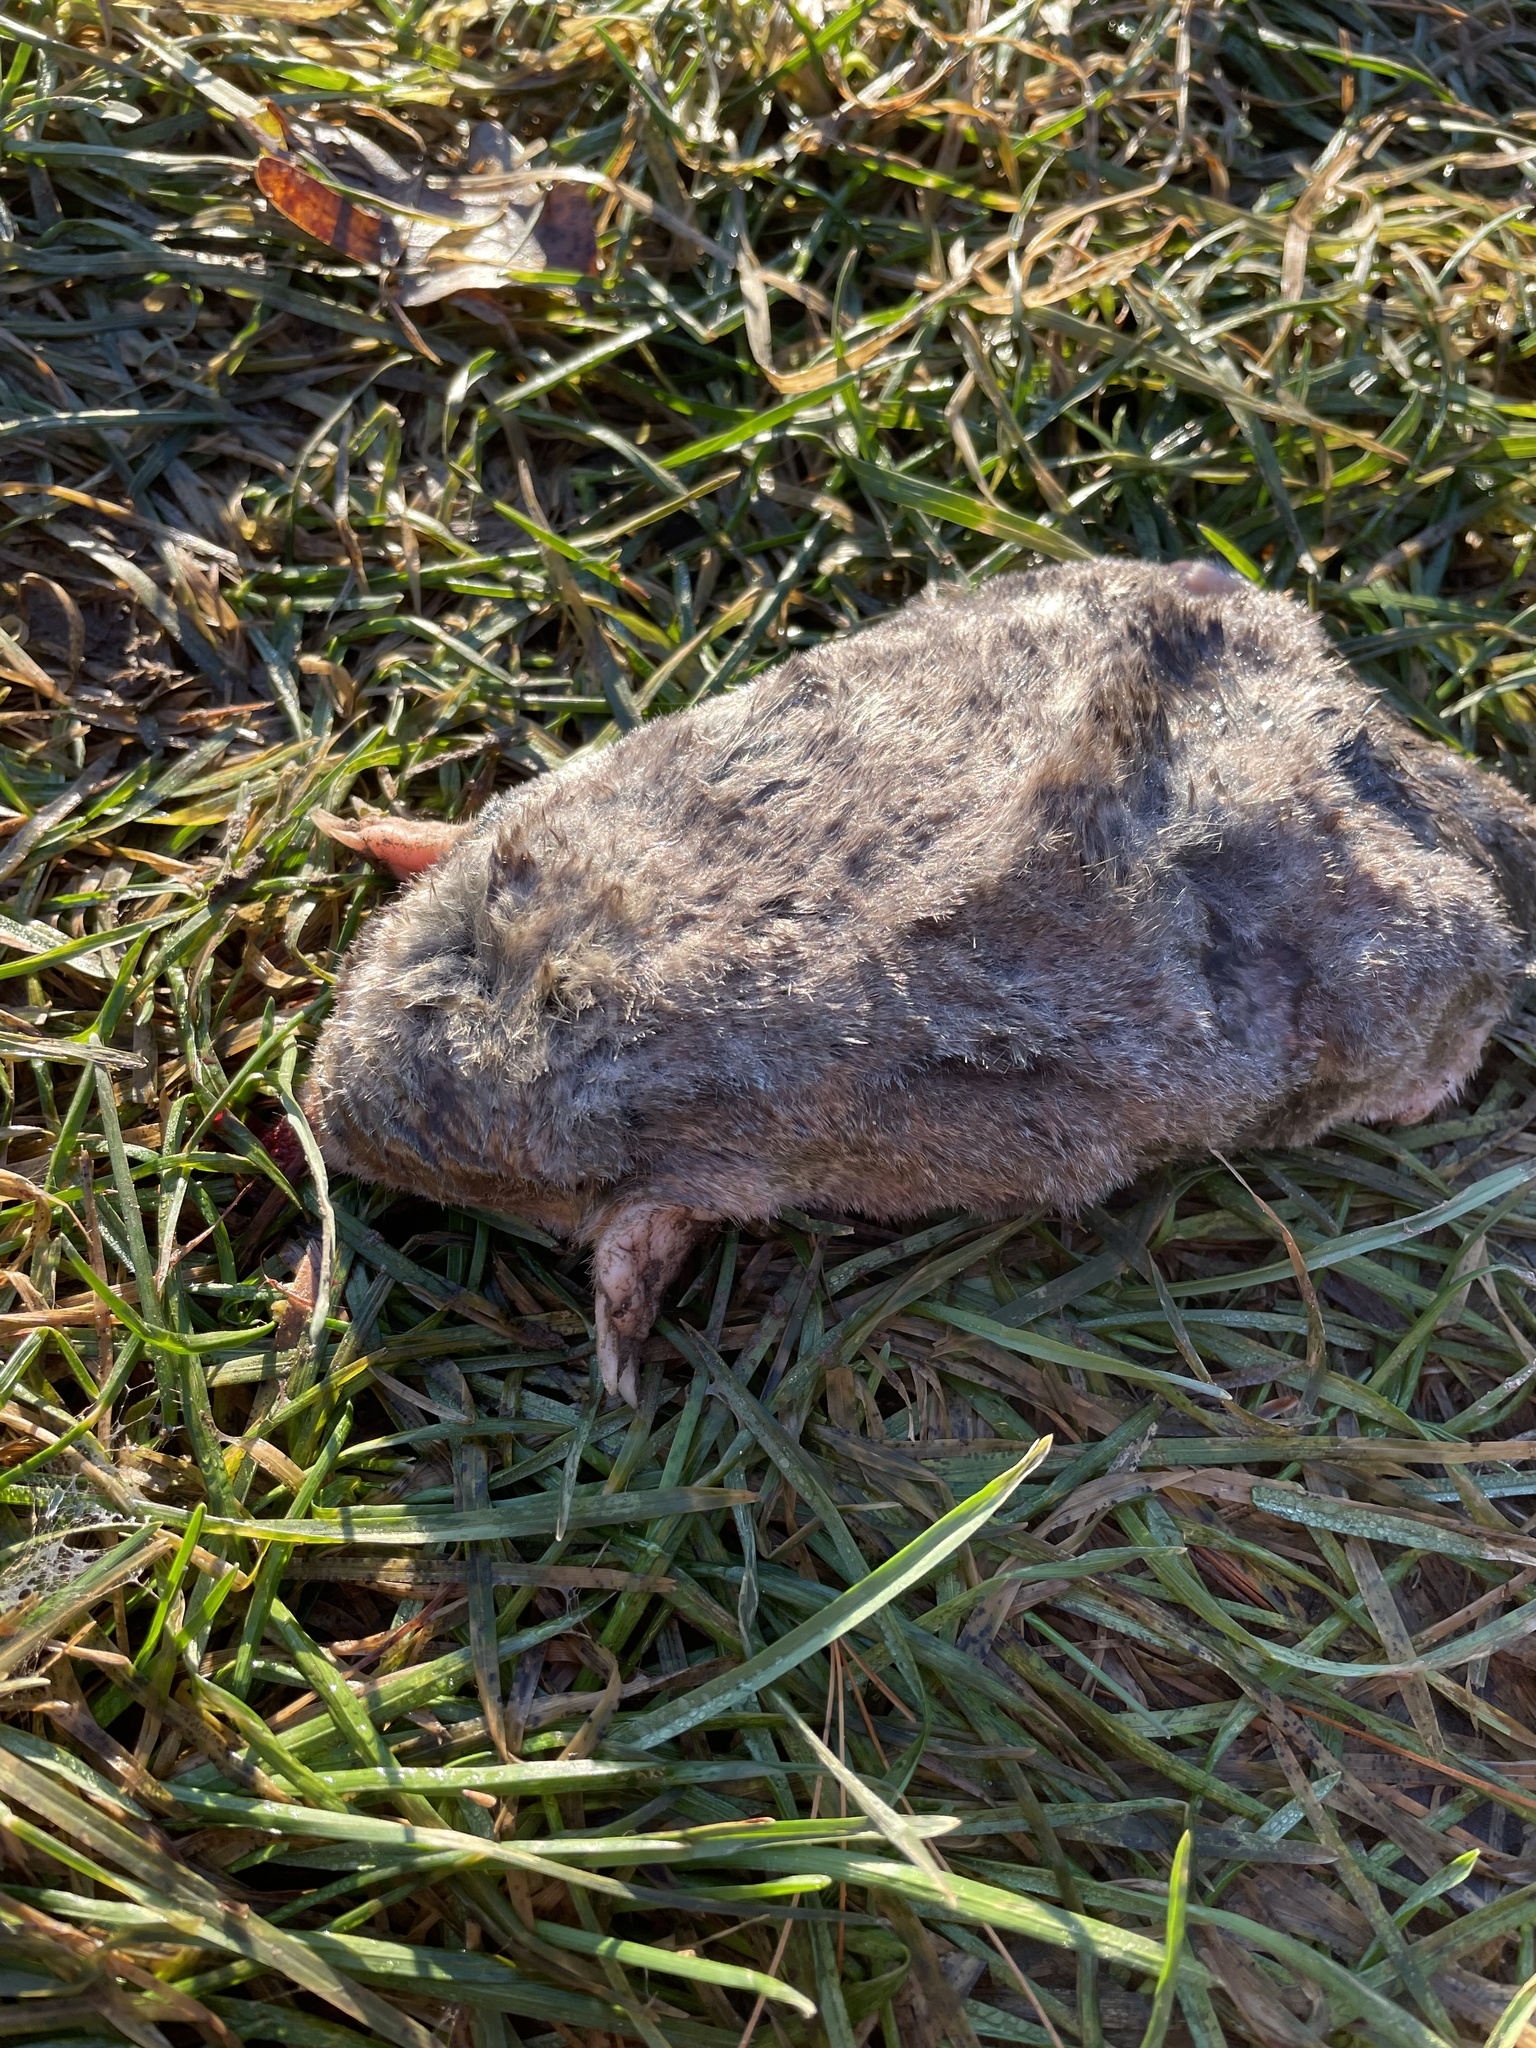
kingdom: Animalia
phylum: Chordata
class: Mammalia
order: Soricomorpha
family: Talpidae
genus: Scalopus
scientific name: Scalopus aquaticus
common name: Eastern mole
